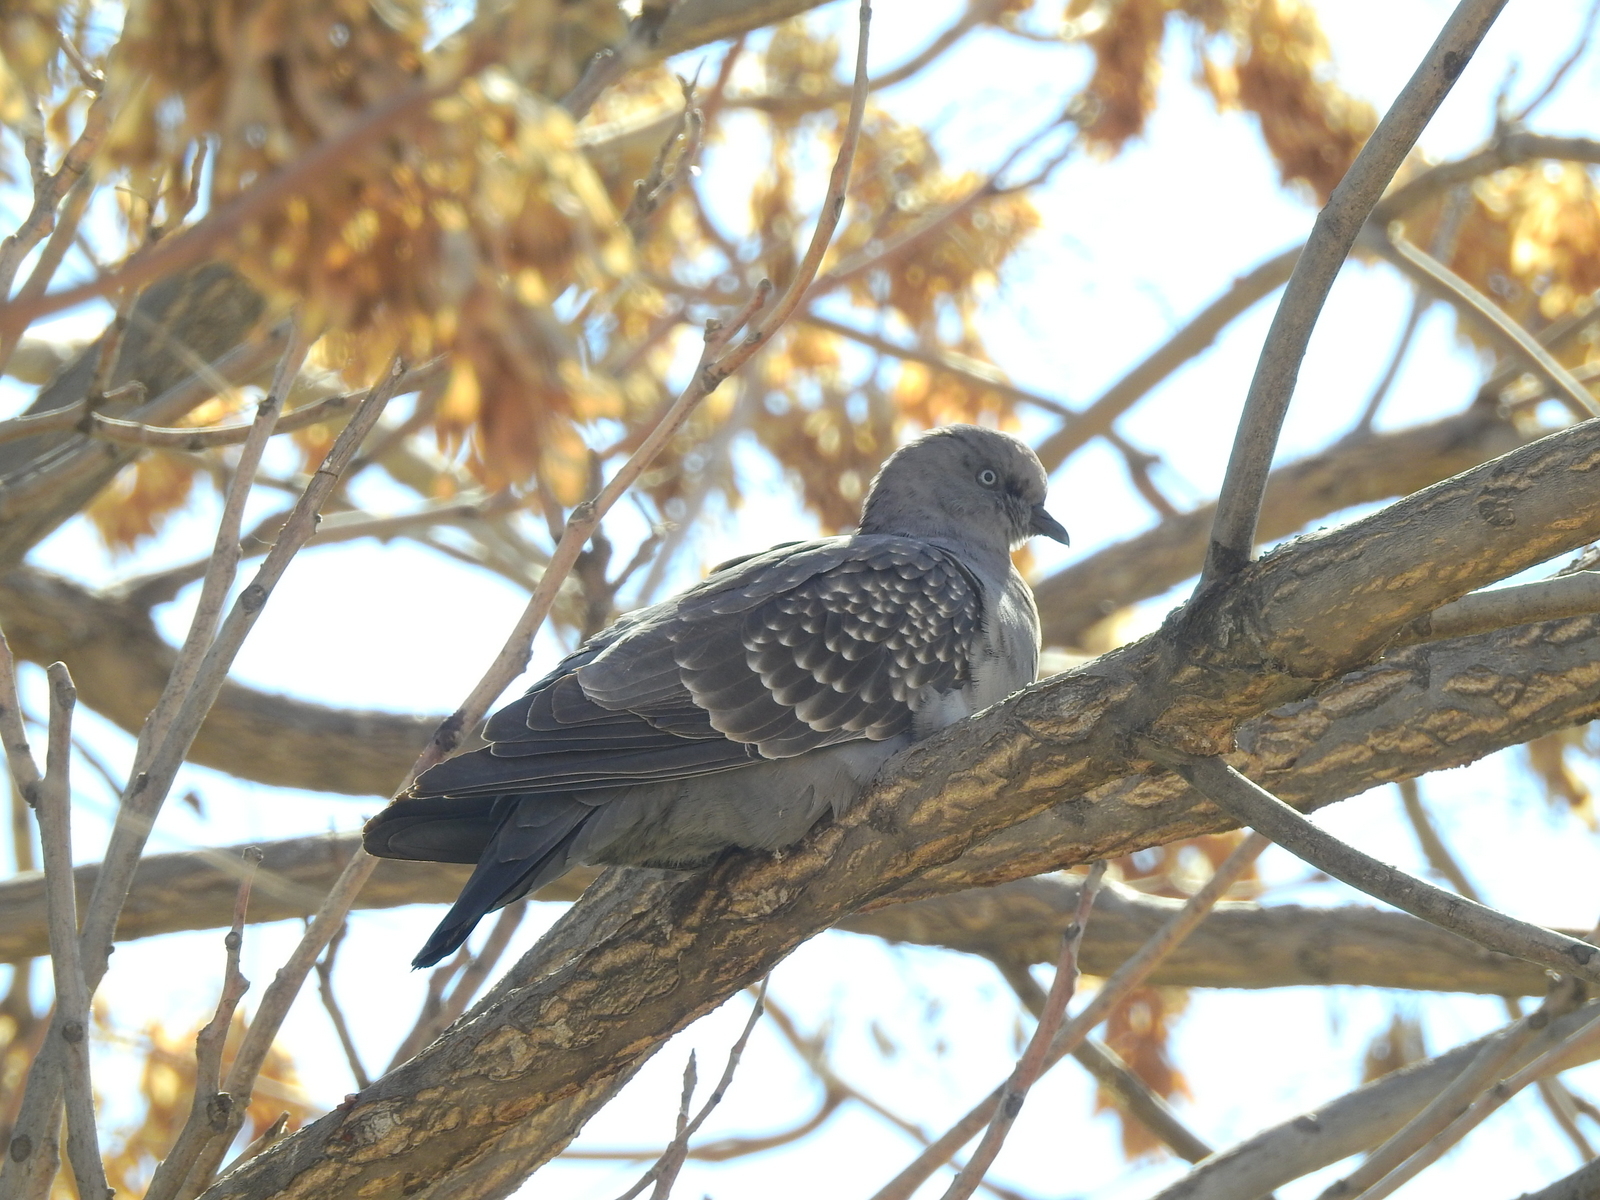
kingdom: Animalia
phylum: Chordata
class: Aves
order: Columbiformes
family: Columbidae
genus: Patagioenas
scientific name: Patagioenas maculosa
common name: Spot-winged pigeon
